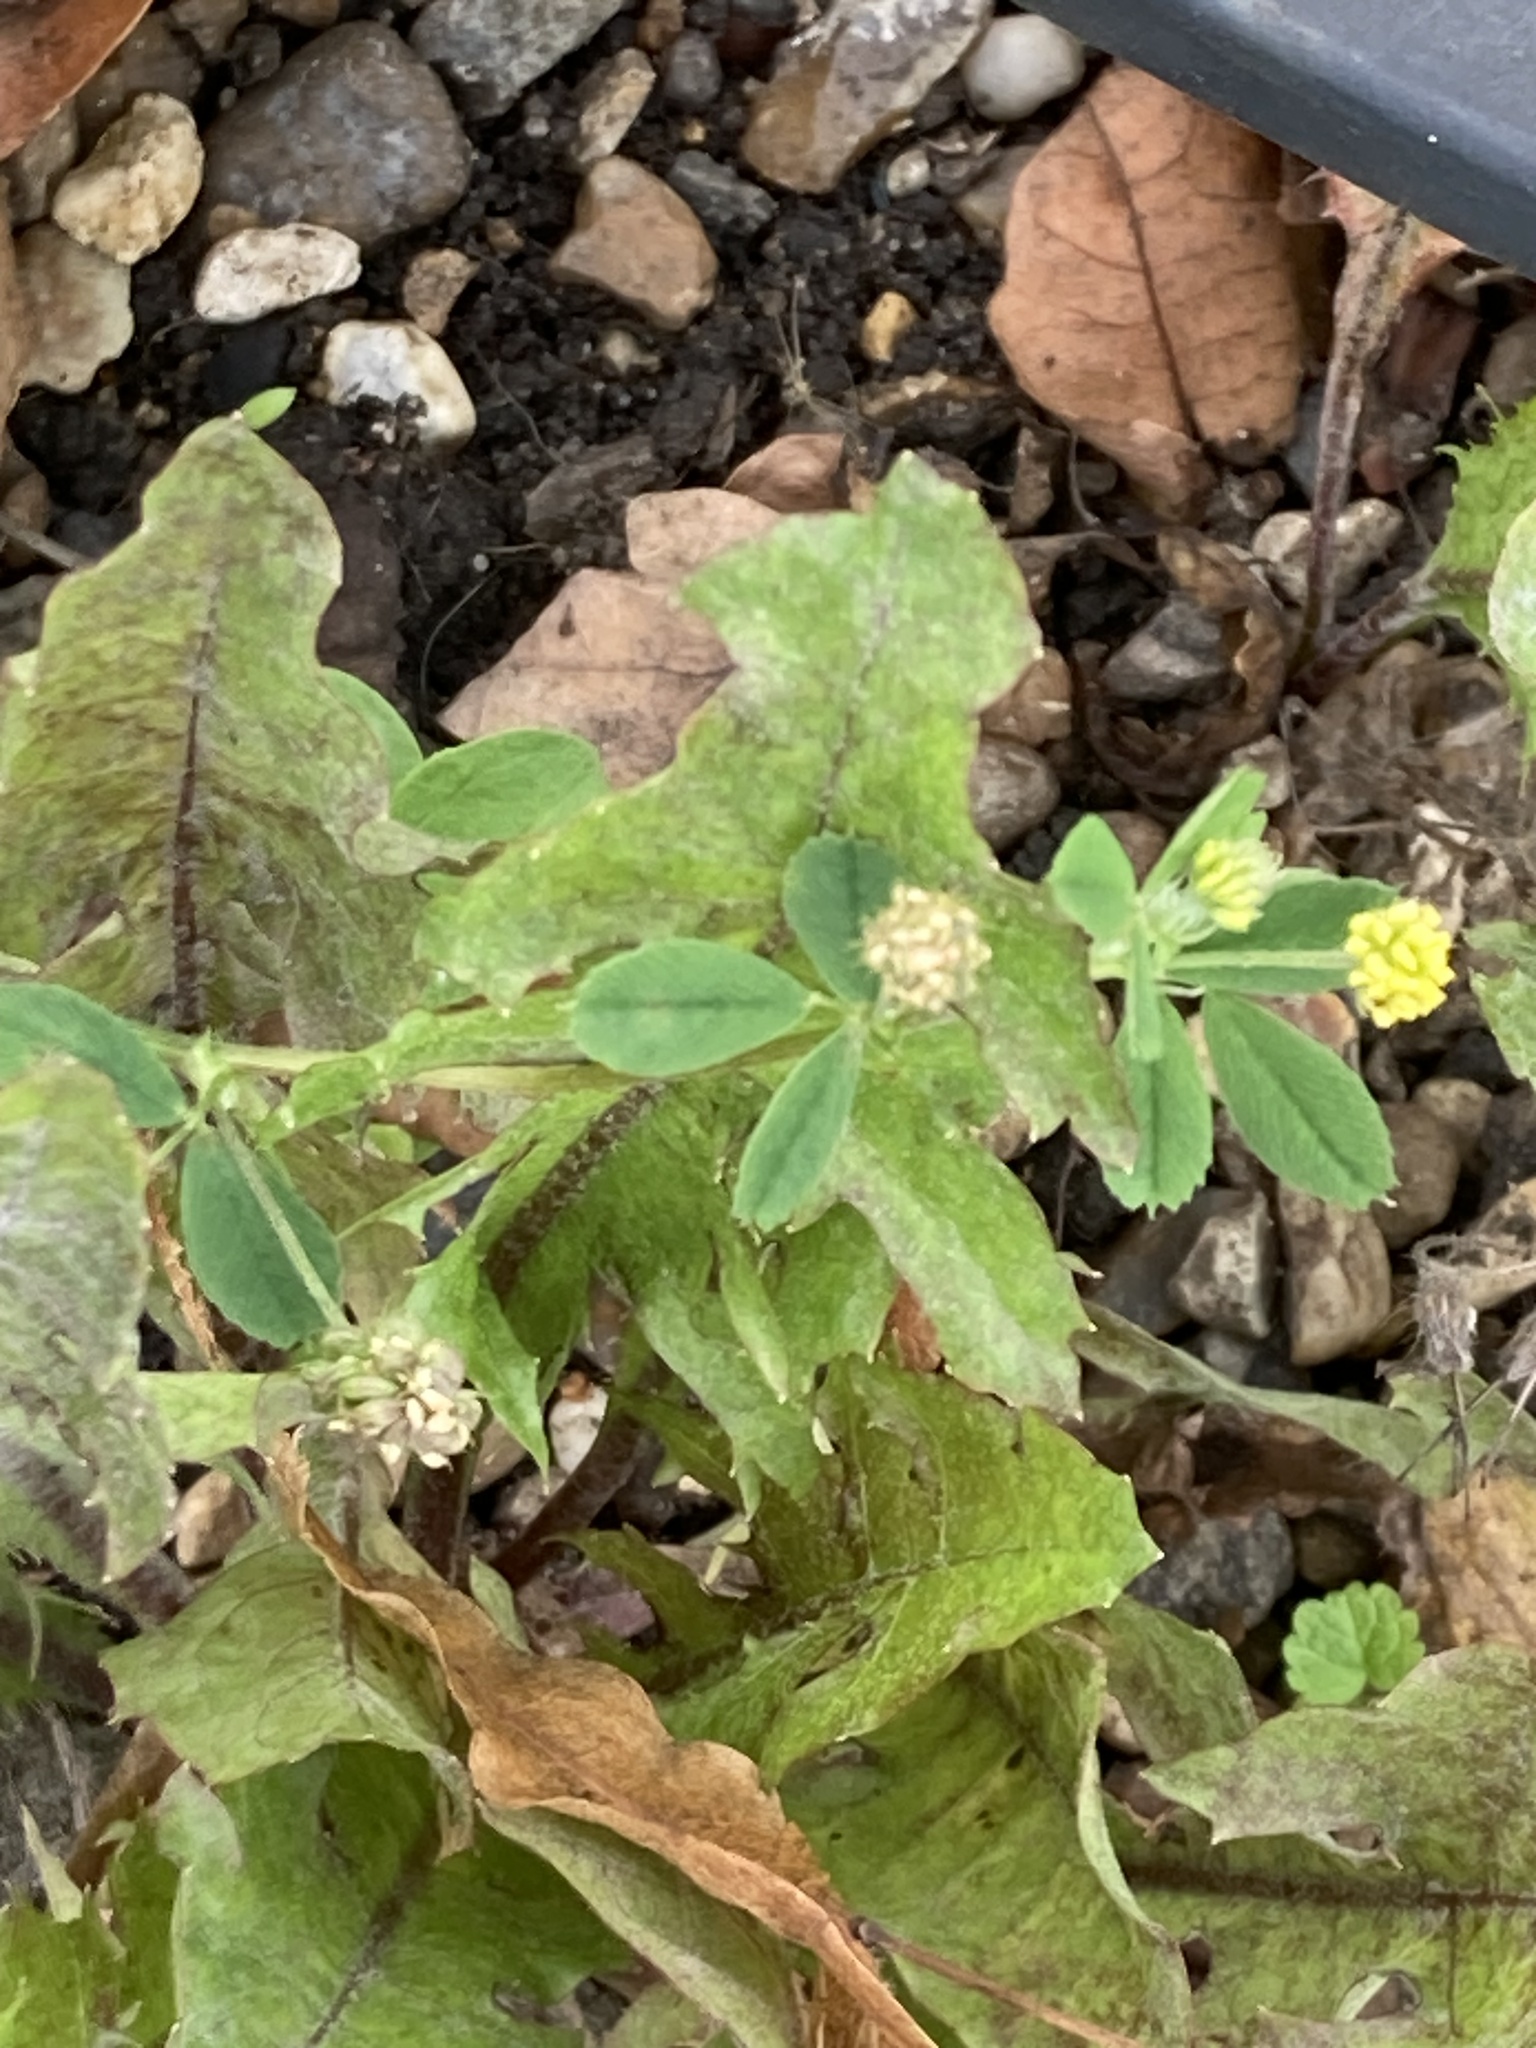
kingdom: Plantae
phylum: Tracheophyta
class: Magnoliopsida
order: Fabales
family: Fabaceae
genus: Medicago
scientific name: Medicago lupulina
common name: Black medick
